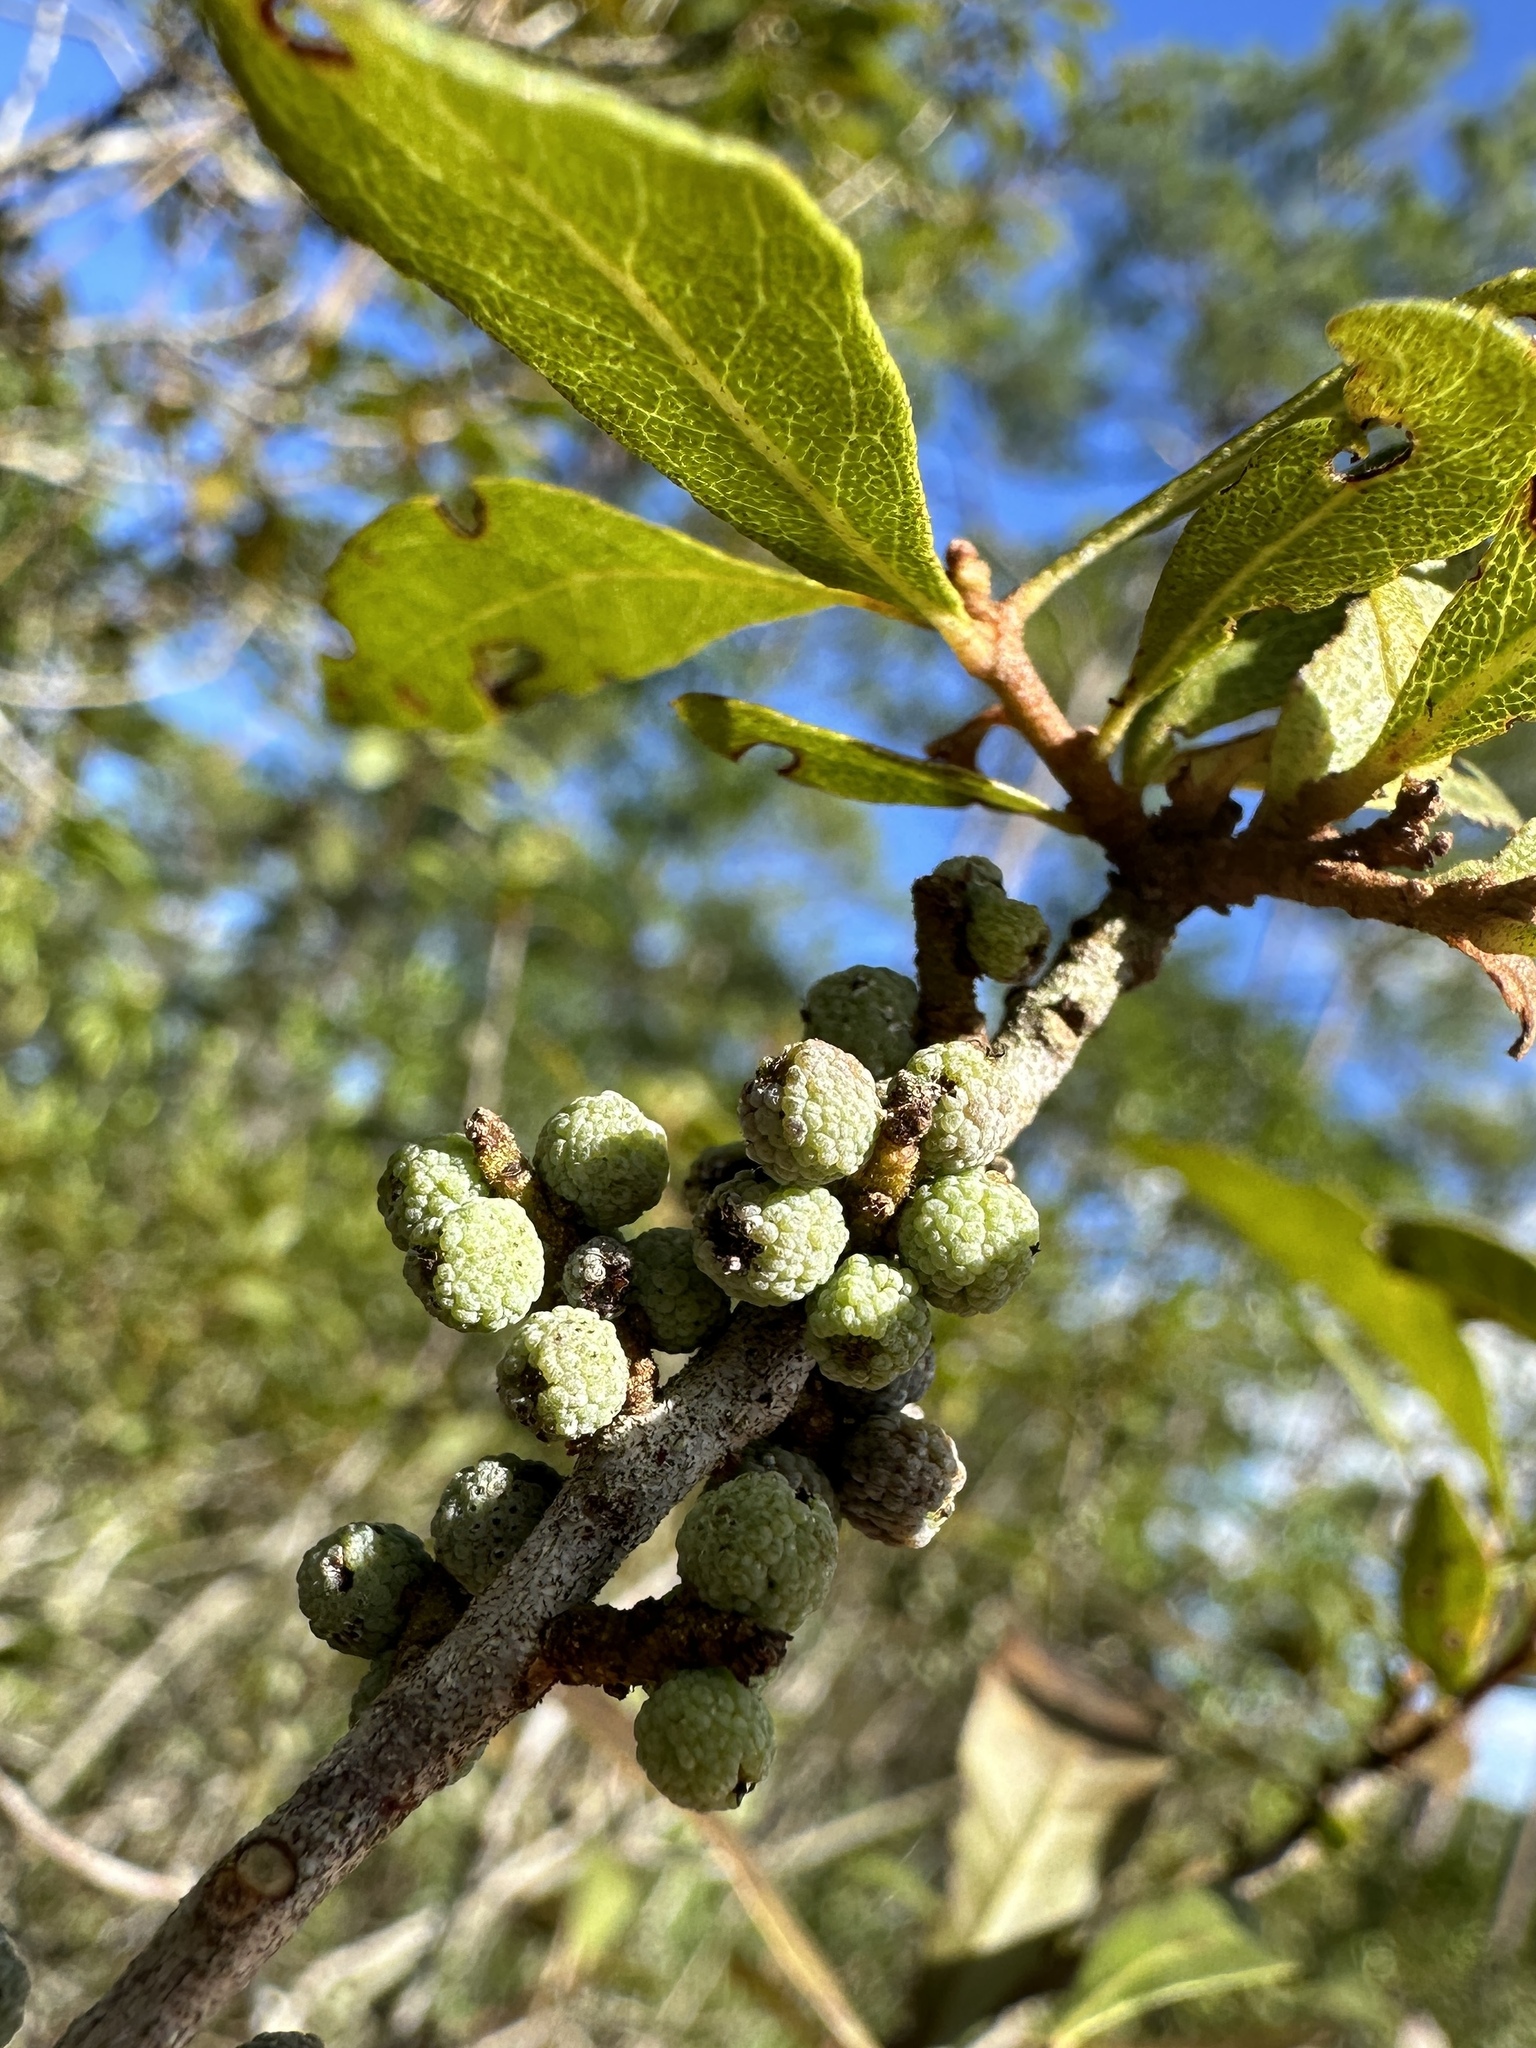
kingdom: Plantae
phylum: Tracheophyta
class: Magnoliopsida
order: Fagales
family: Myricaceae
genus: Morella
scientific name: Morella cerifera
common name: Wax myrtle
